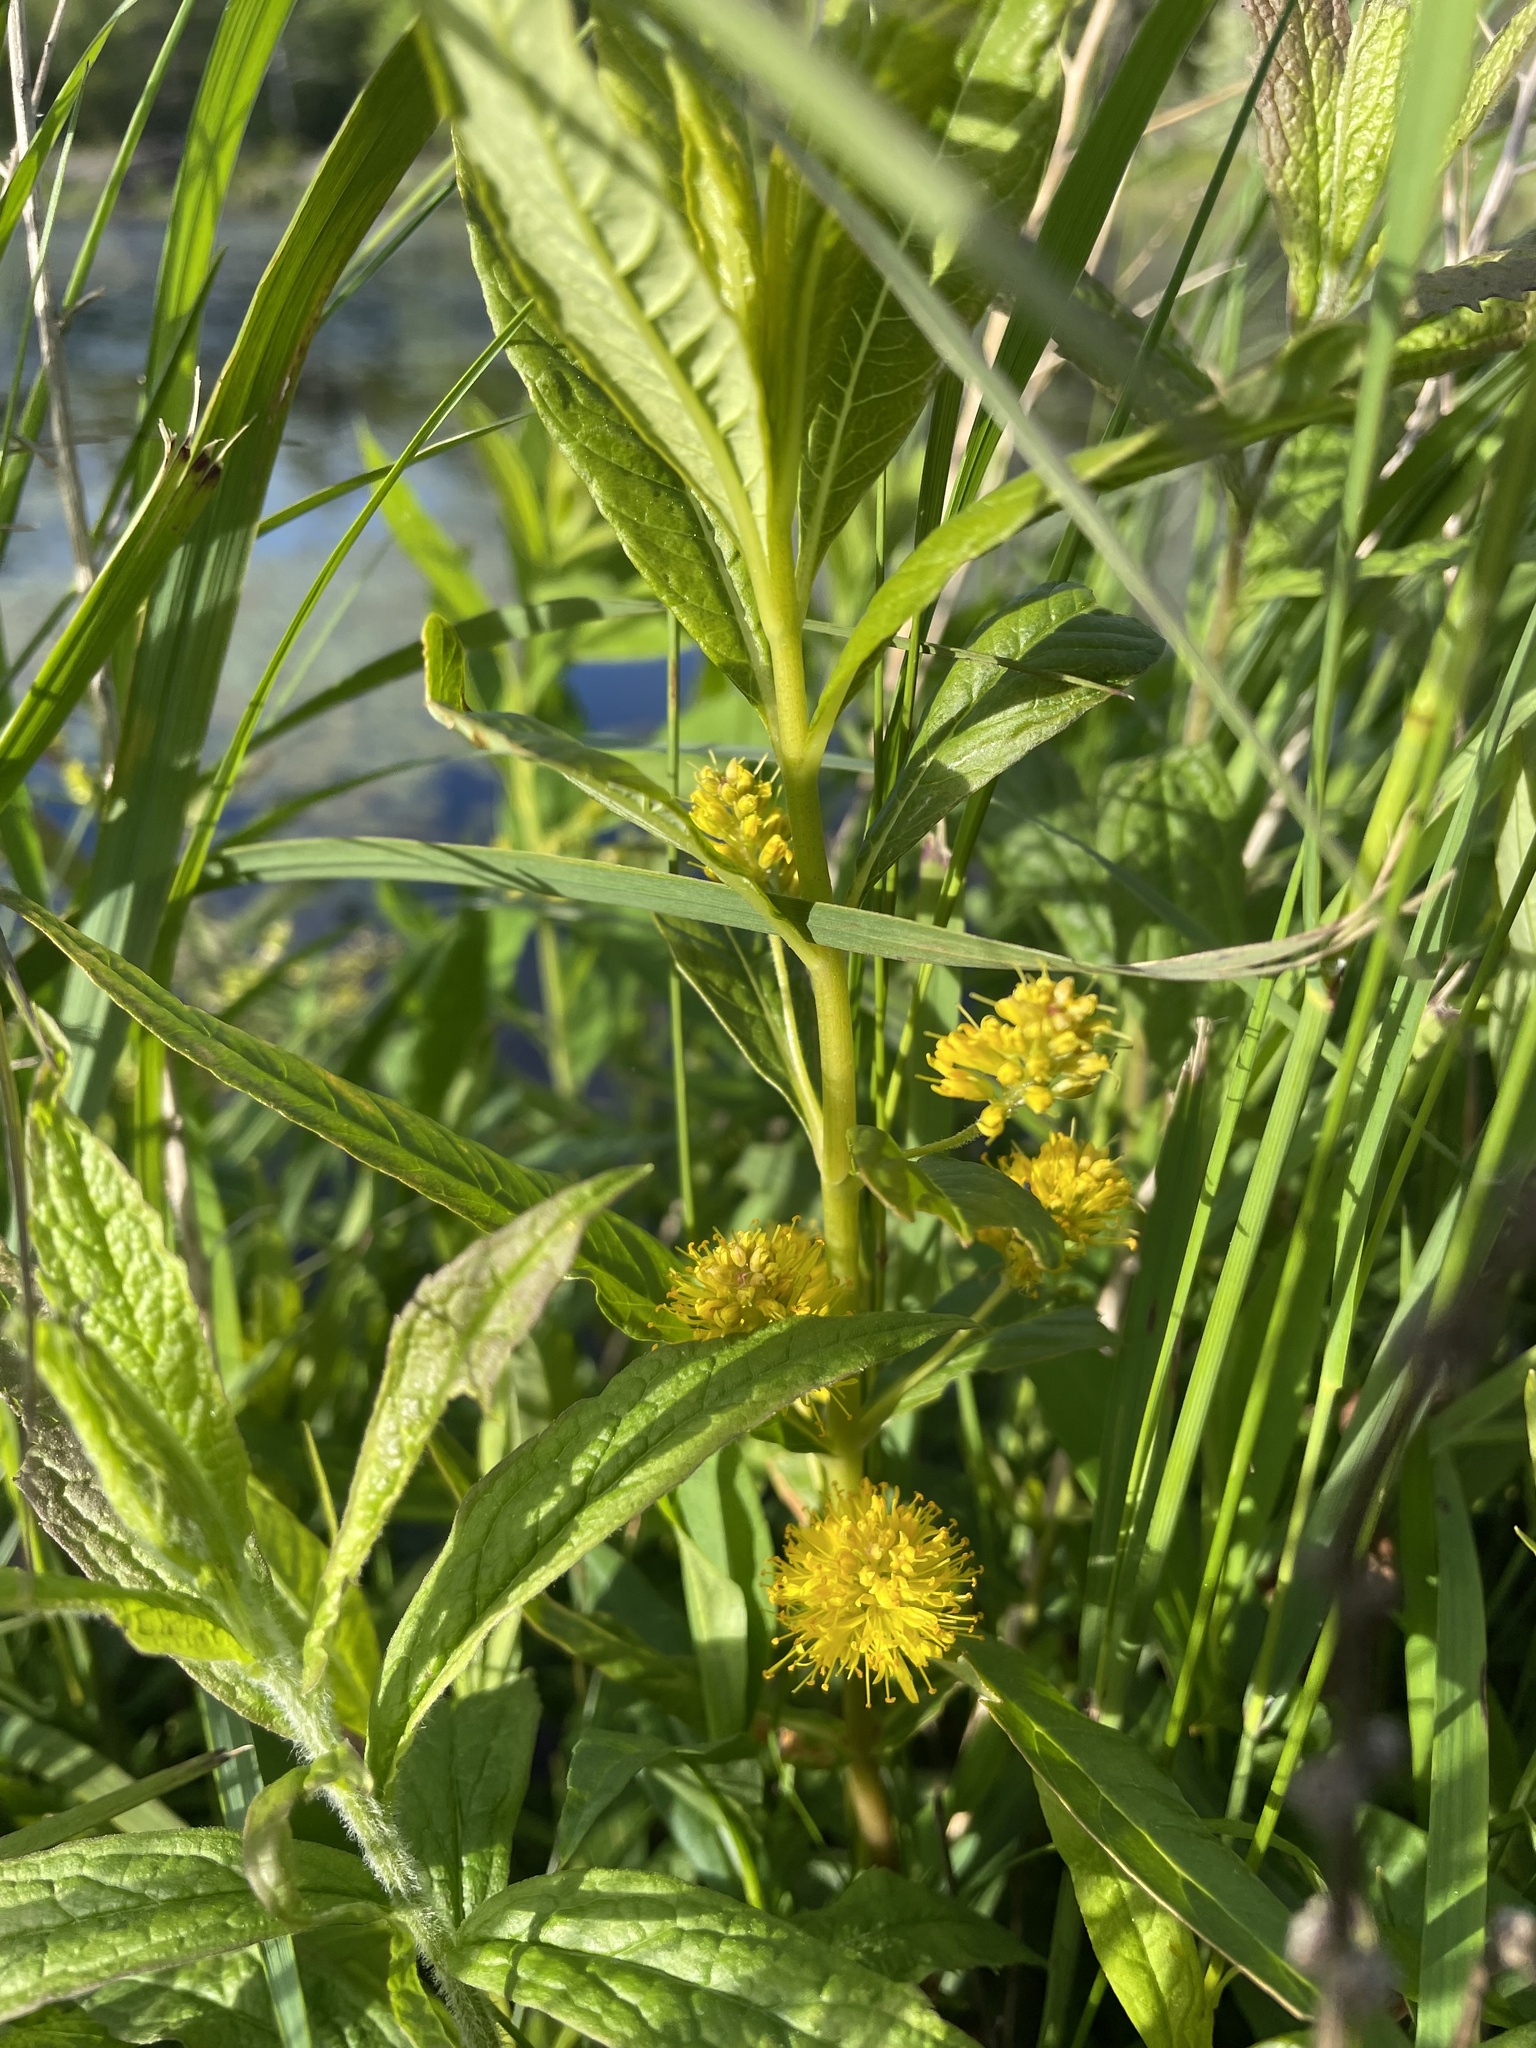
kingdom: Plantae
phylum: Tracheophyta
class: Magnoliopsida
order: Ericales
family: Primulaceae
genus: Lysimachia
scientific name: Lysimachia thyrsiflora
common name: Tufted loosestrife
